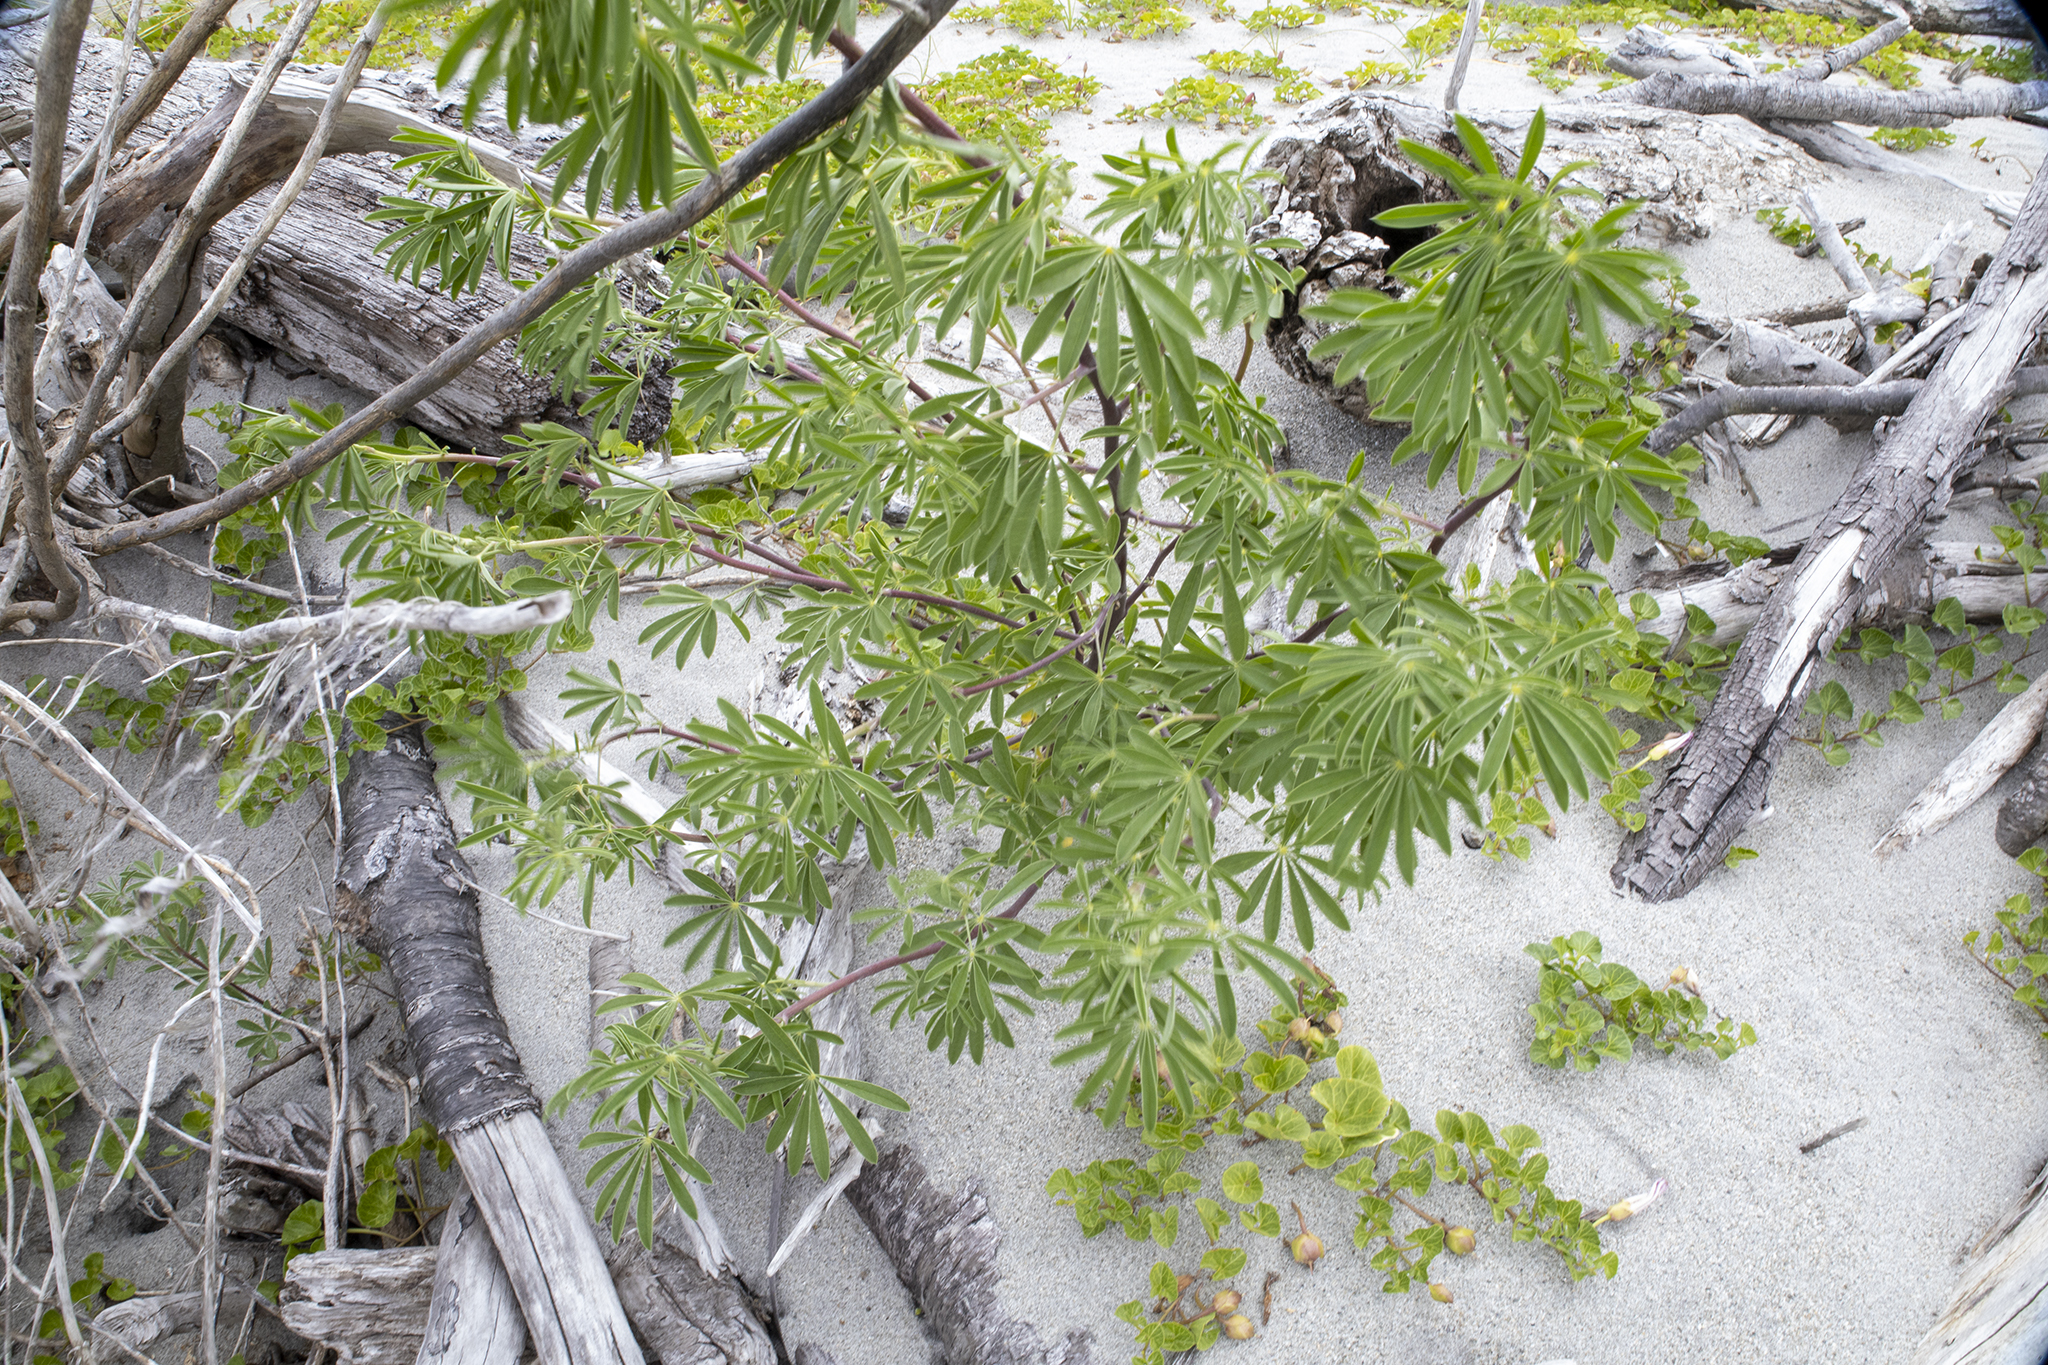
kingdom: Plantae
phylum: Tracheophyta
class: Magnoliopsida
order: Fabales
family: Fabaceae
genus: Lupinus
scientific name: Lupinus arboreus
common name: Yellow bush lupine
